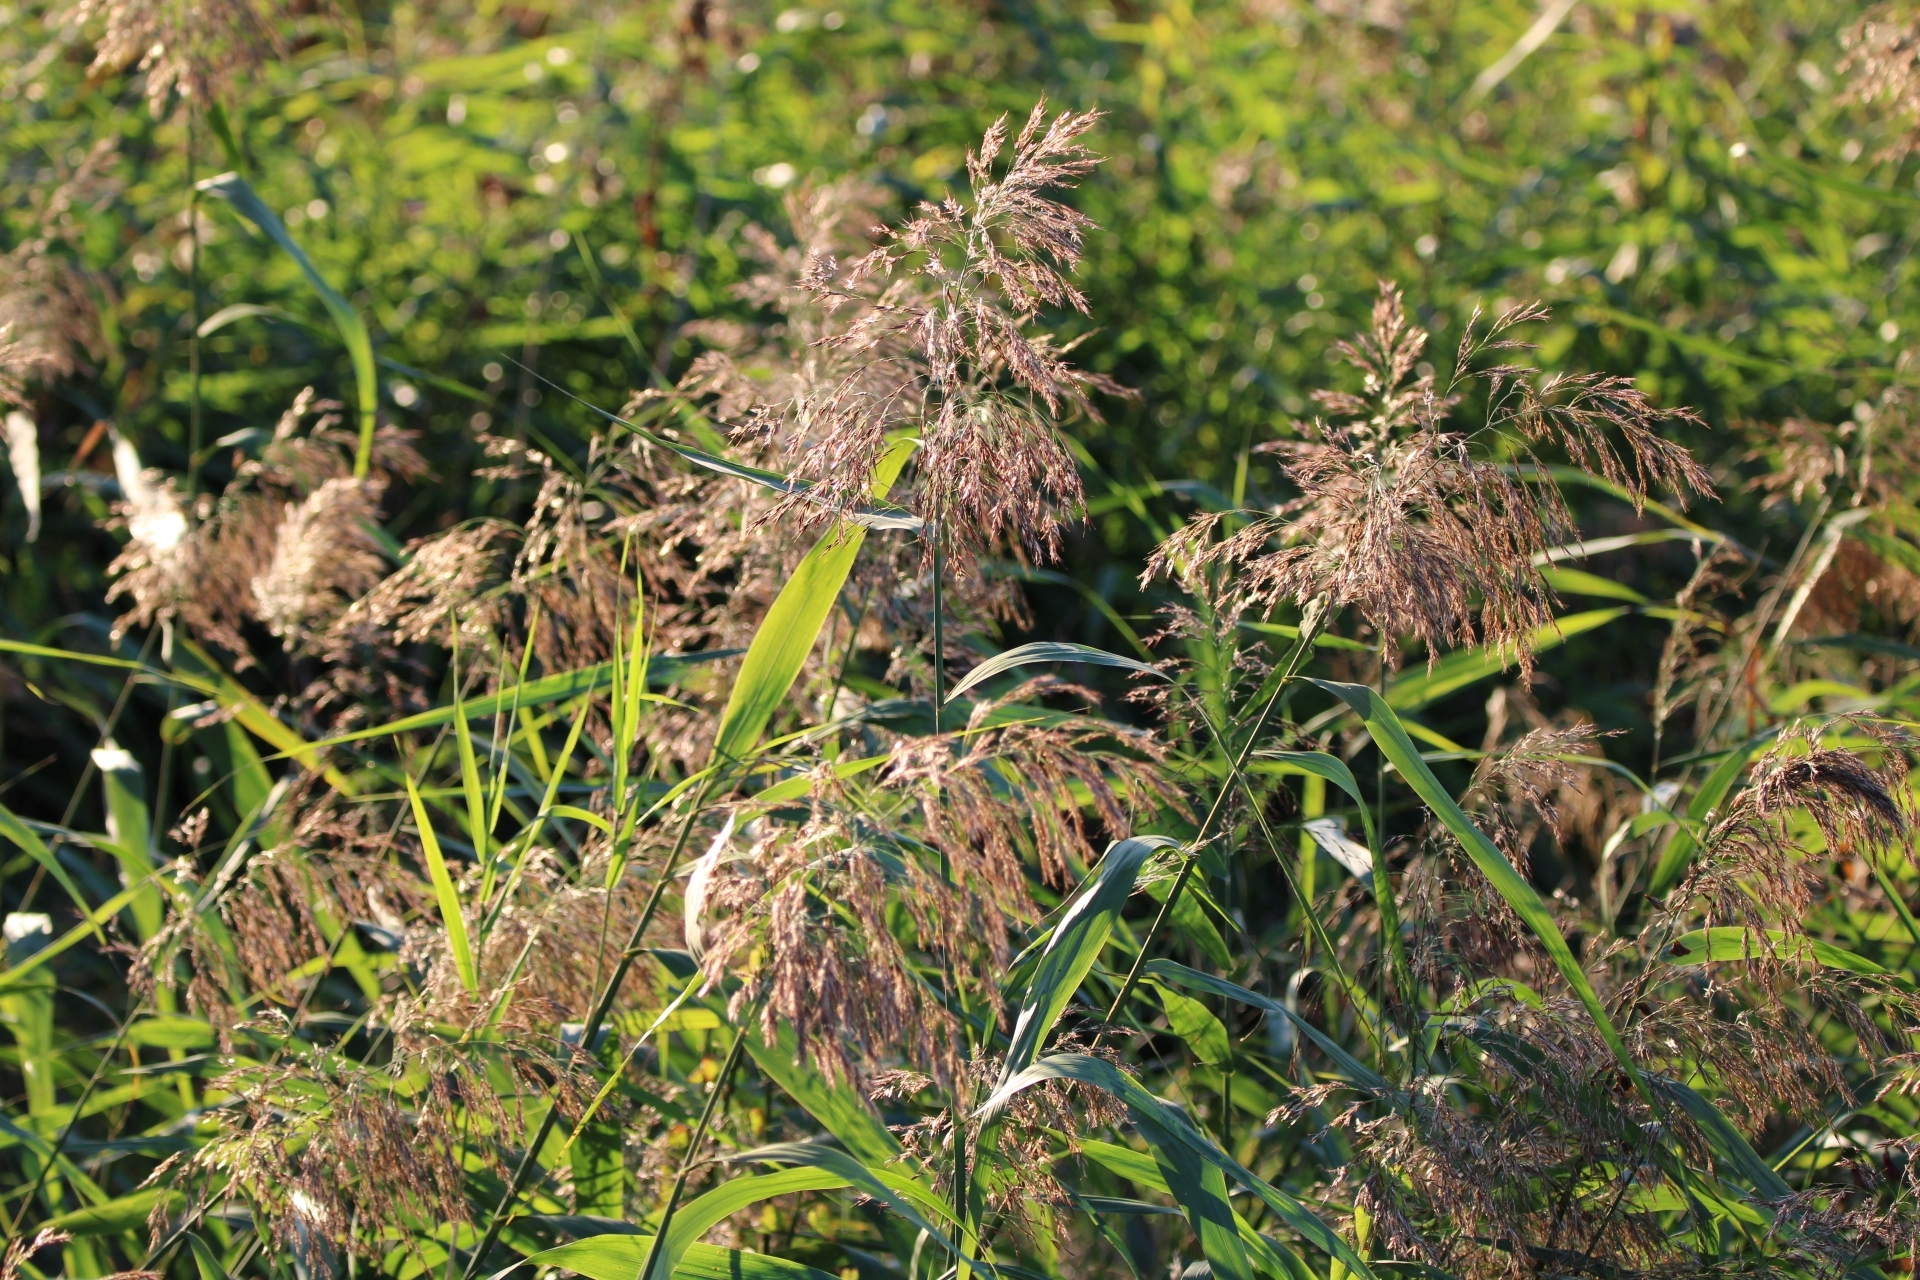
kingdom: Plantae
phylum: Tracheophyta
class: Liliopsida
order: Poales
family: Poaceae
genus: Phragmites
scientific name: Phragmites australis
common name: Common reed
